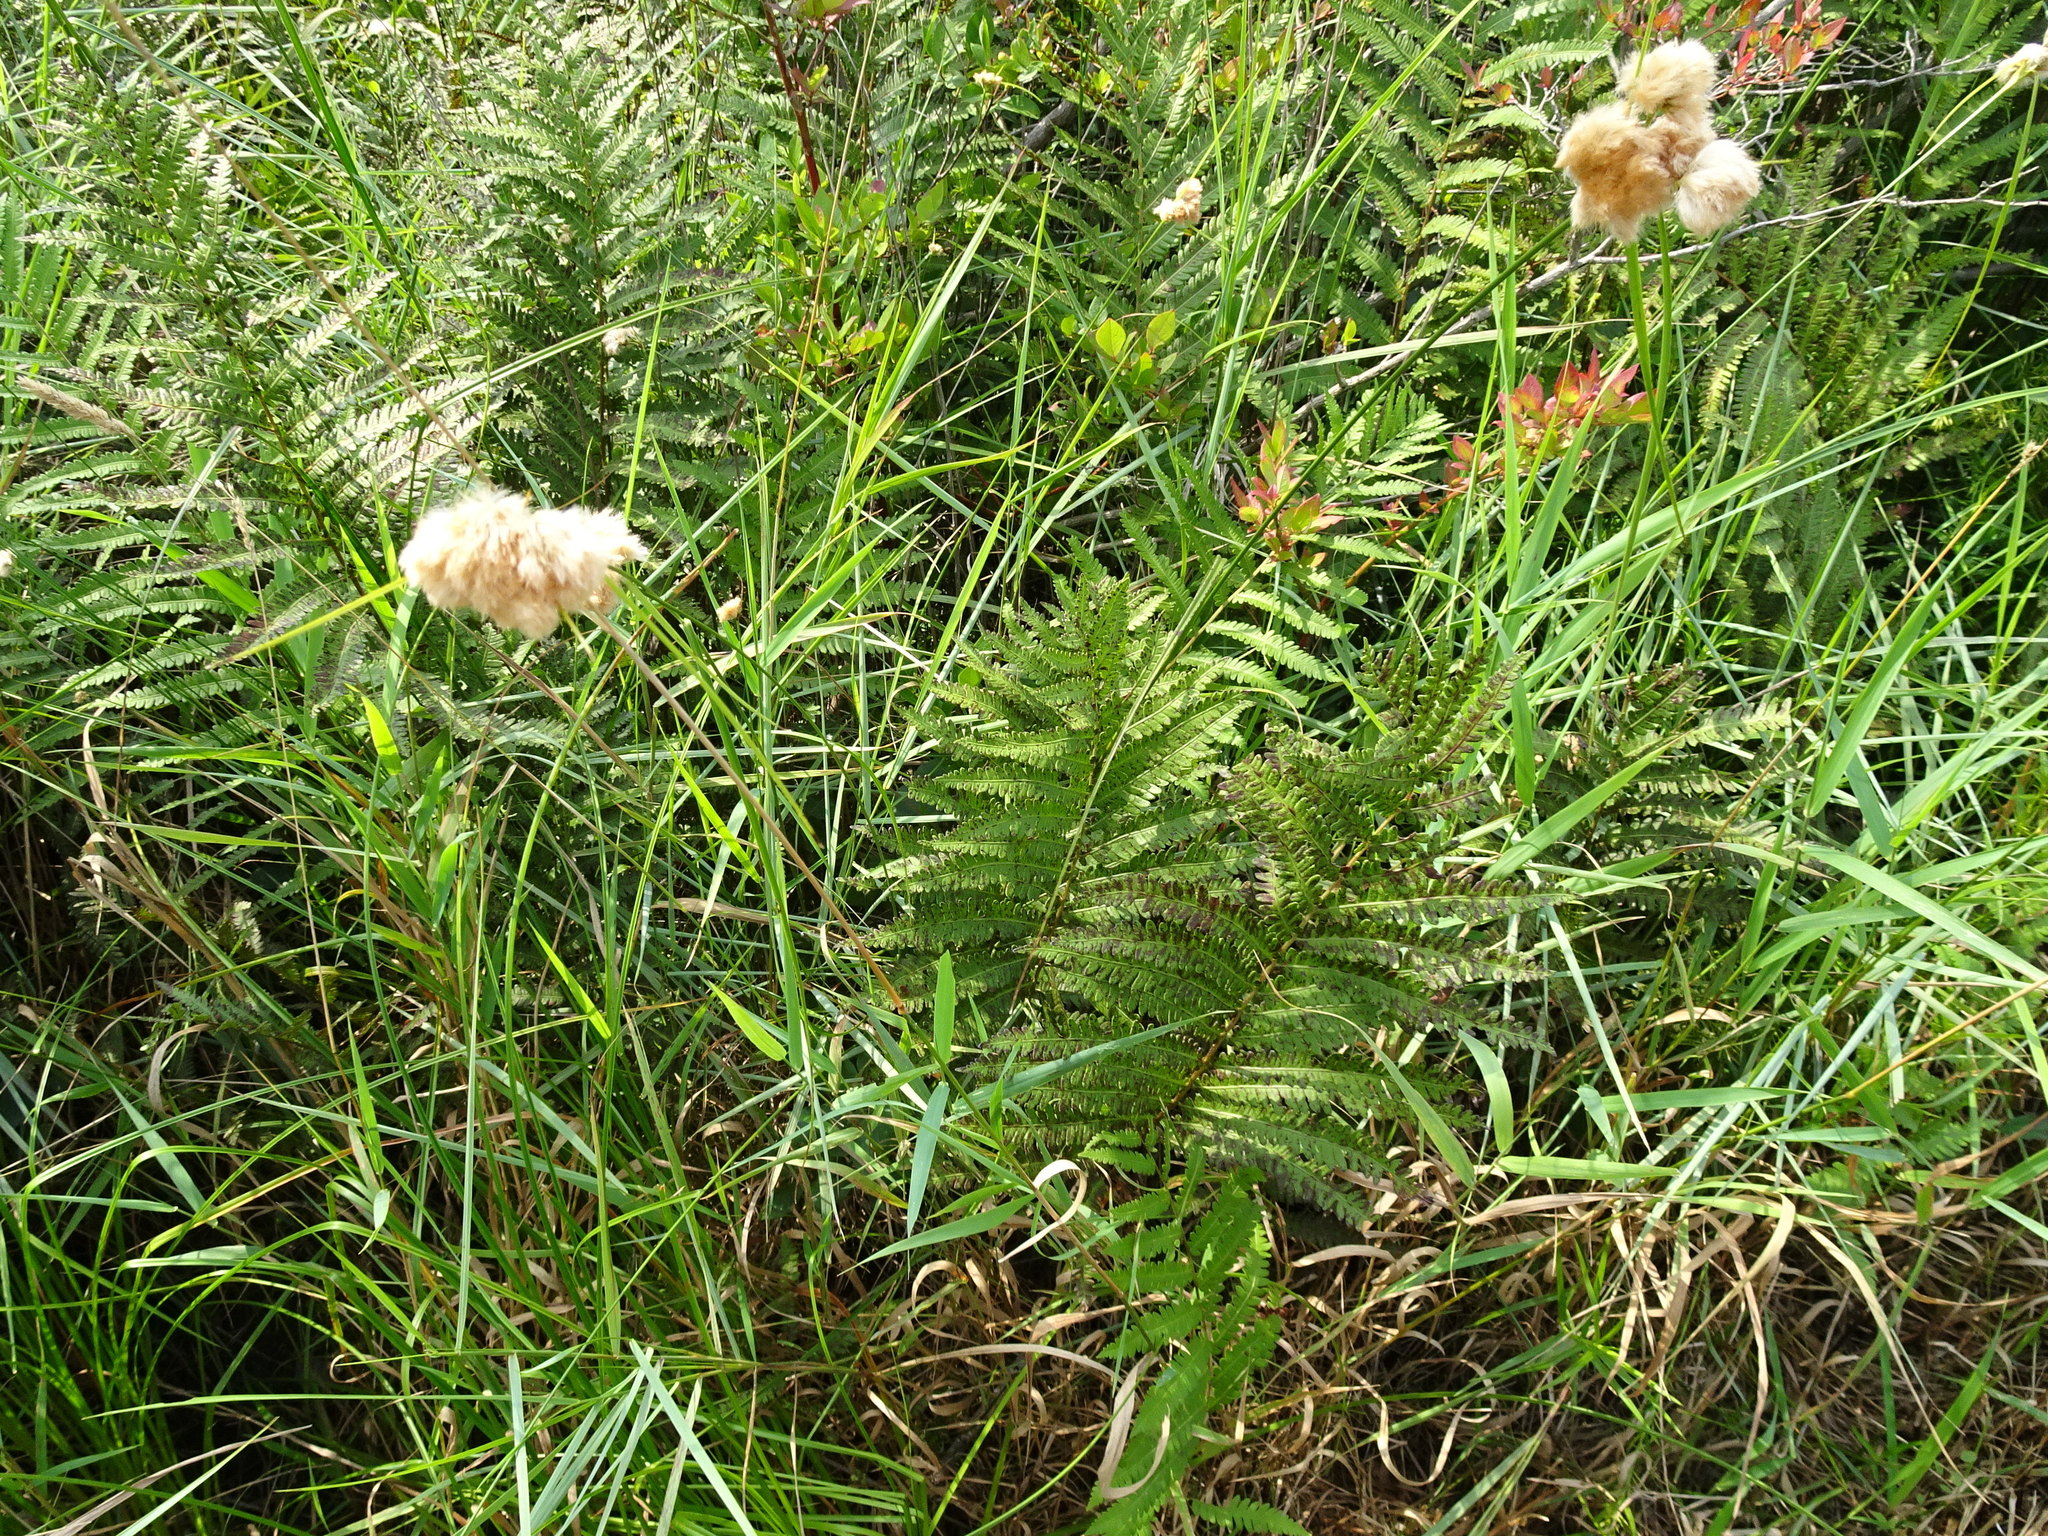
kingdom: Plantae
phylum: Tracheophyta
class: Liliopsida
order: Poales
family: Cyperaceae
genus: Eriophorum
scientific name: Eriophorum virginicum
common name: Tawny cottongrass
